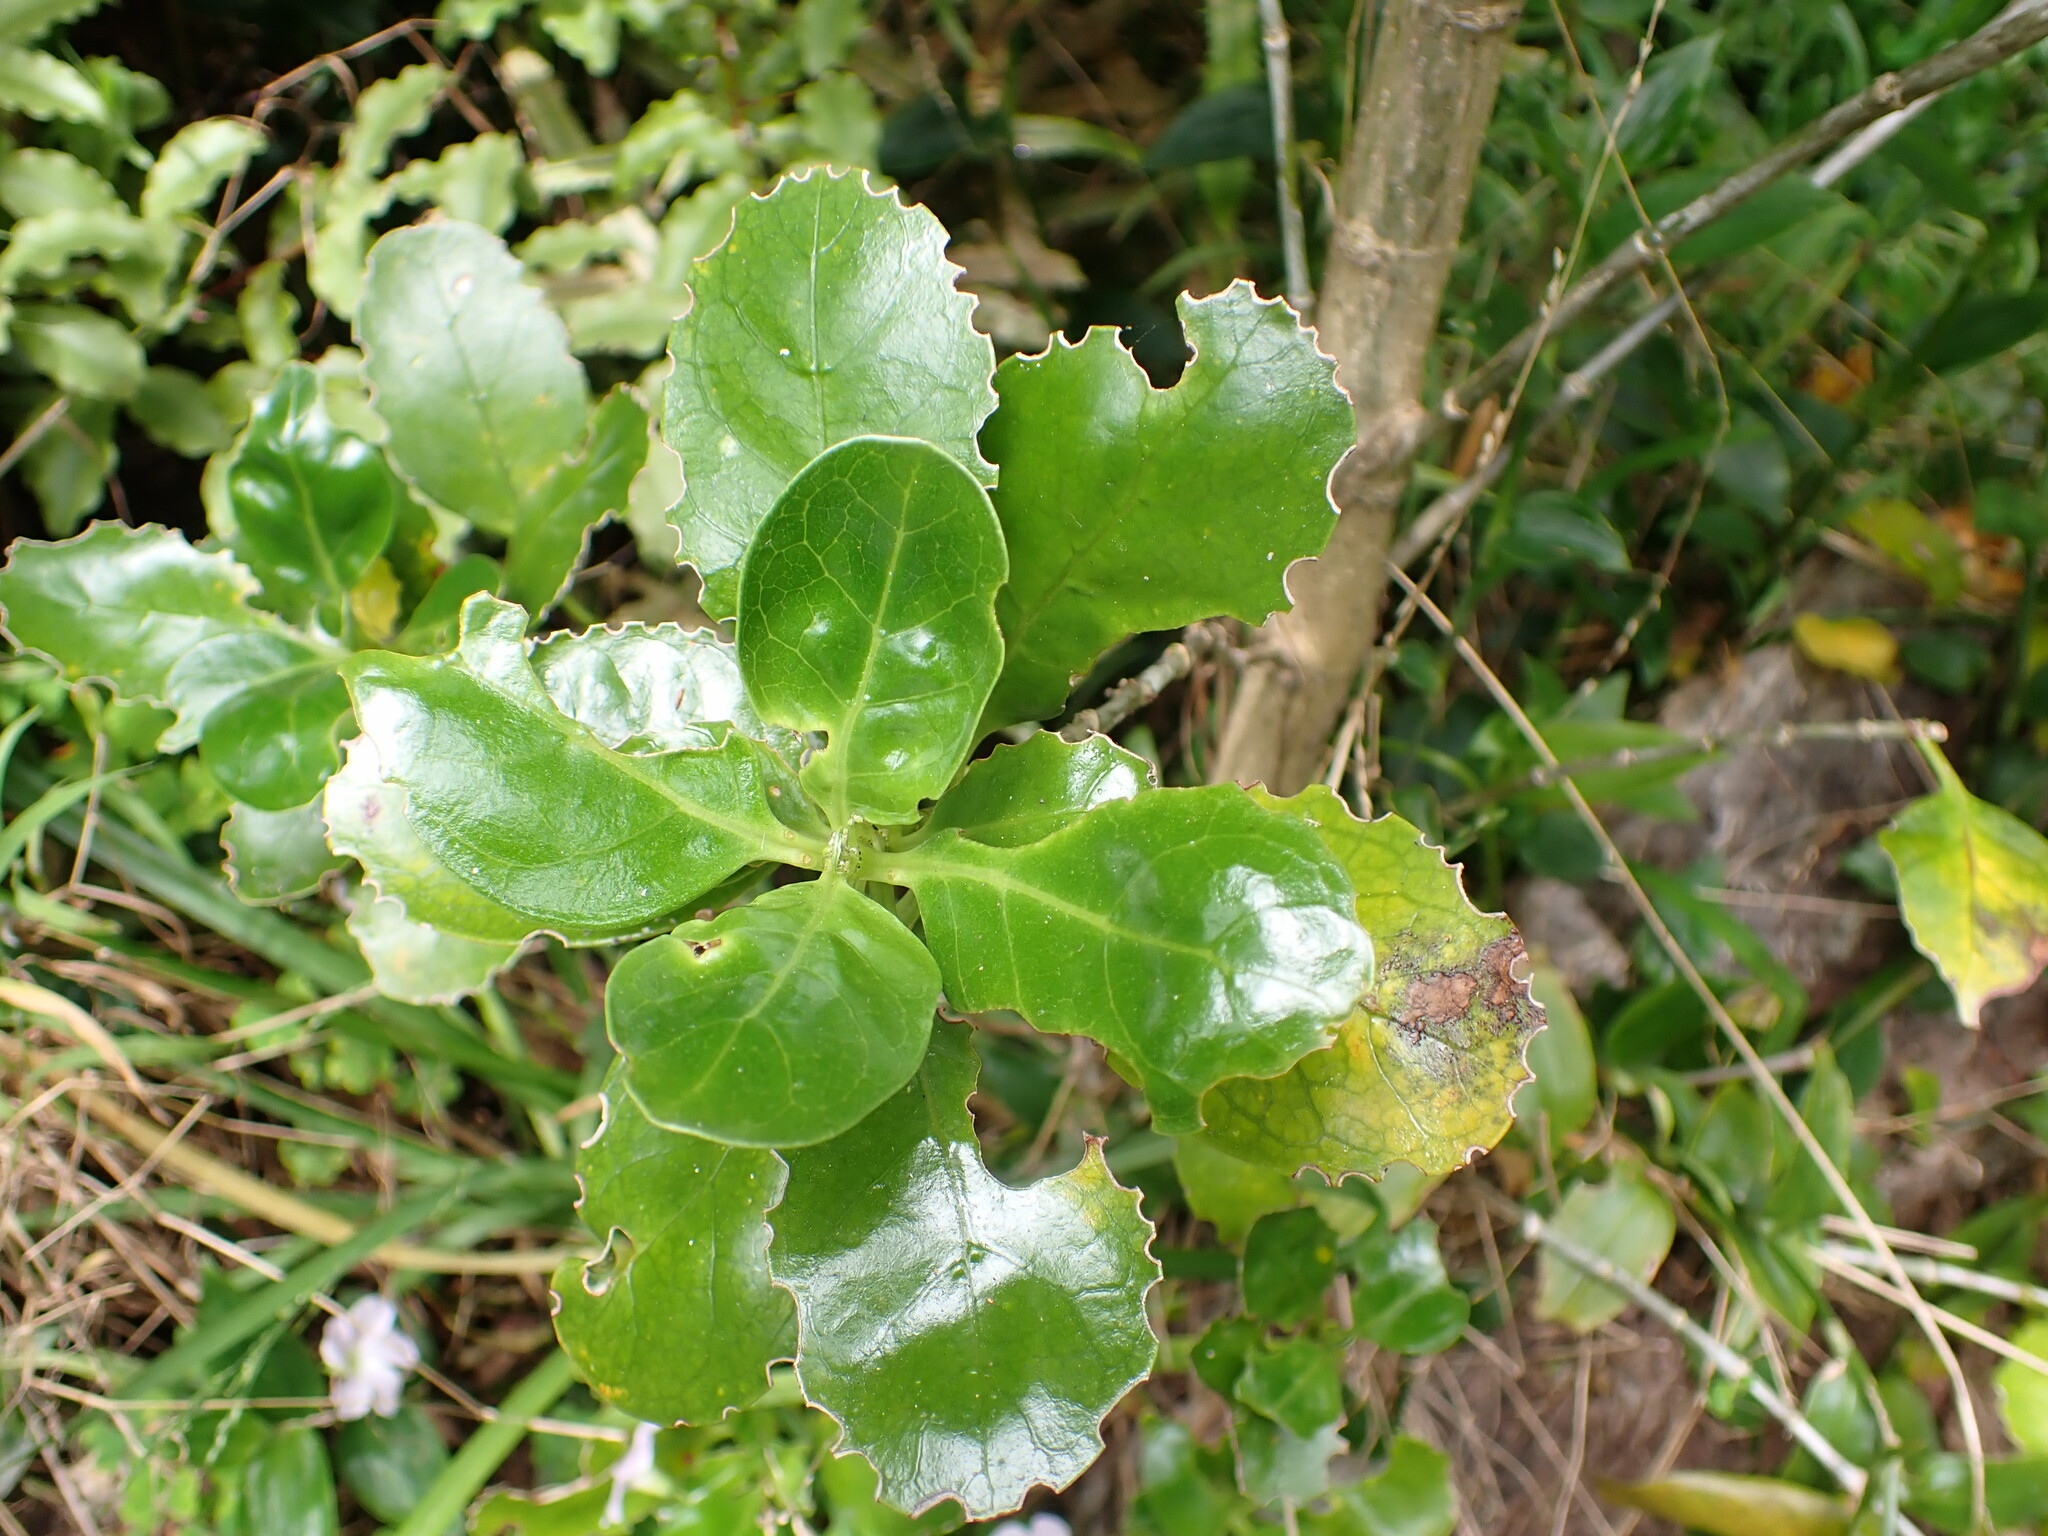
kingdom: Plantae
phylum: Tracheophyta
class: Magnoliopsida
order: Gentianales
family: Rubiaceae
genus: Coprosma
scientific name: Coprosma repens
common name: Tree bedstraw
